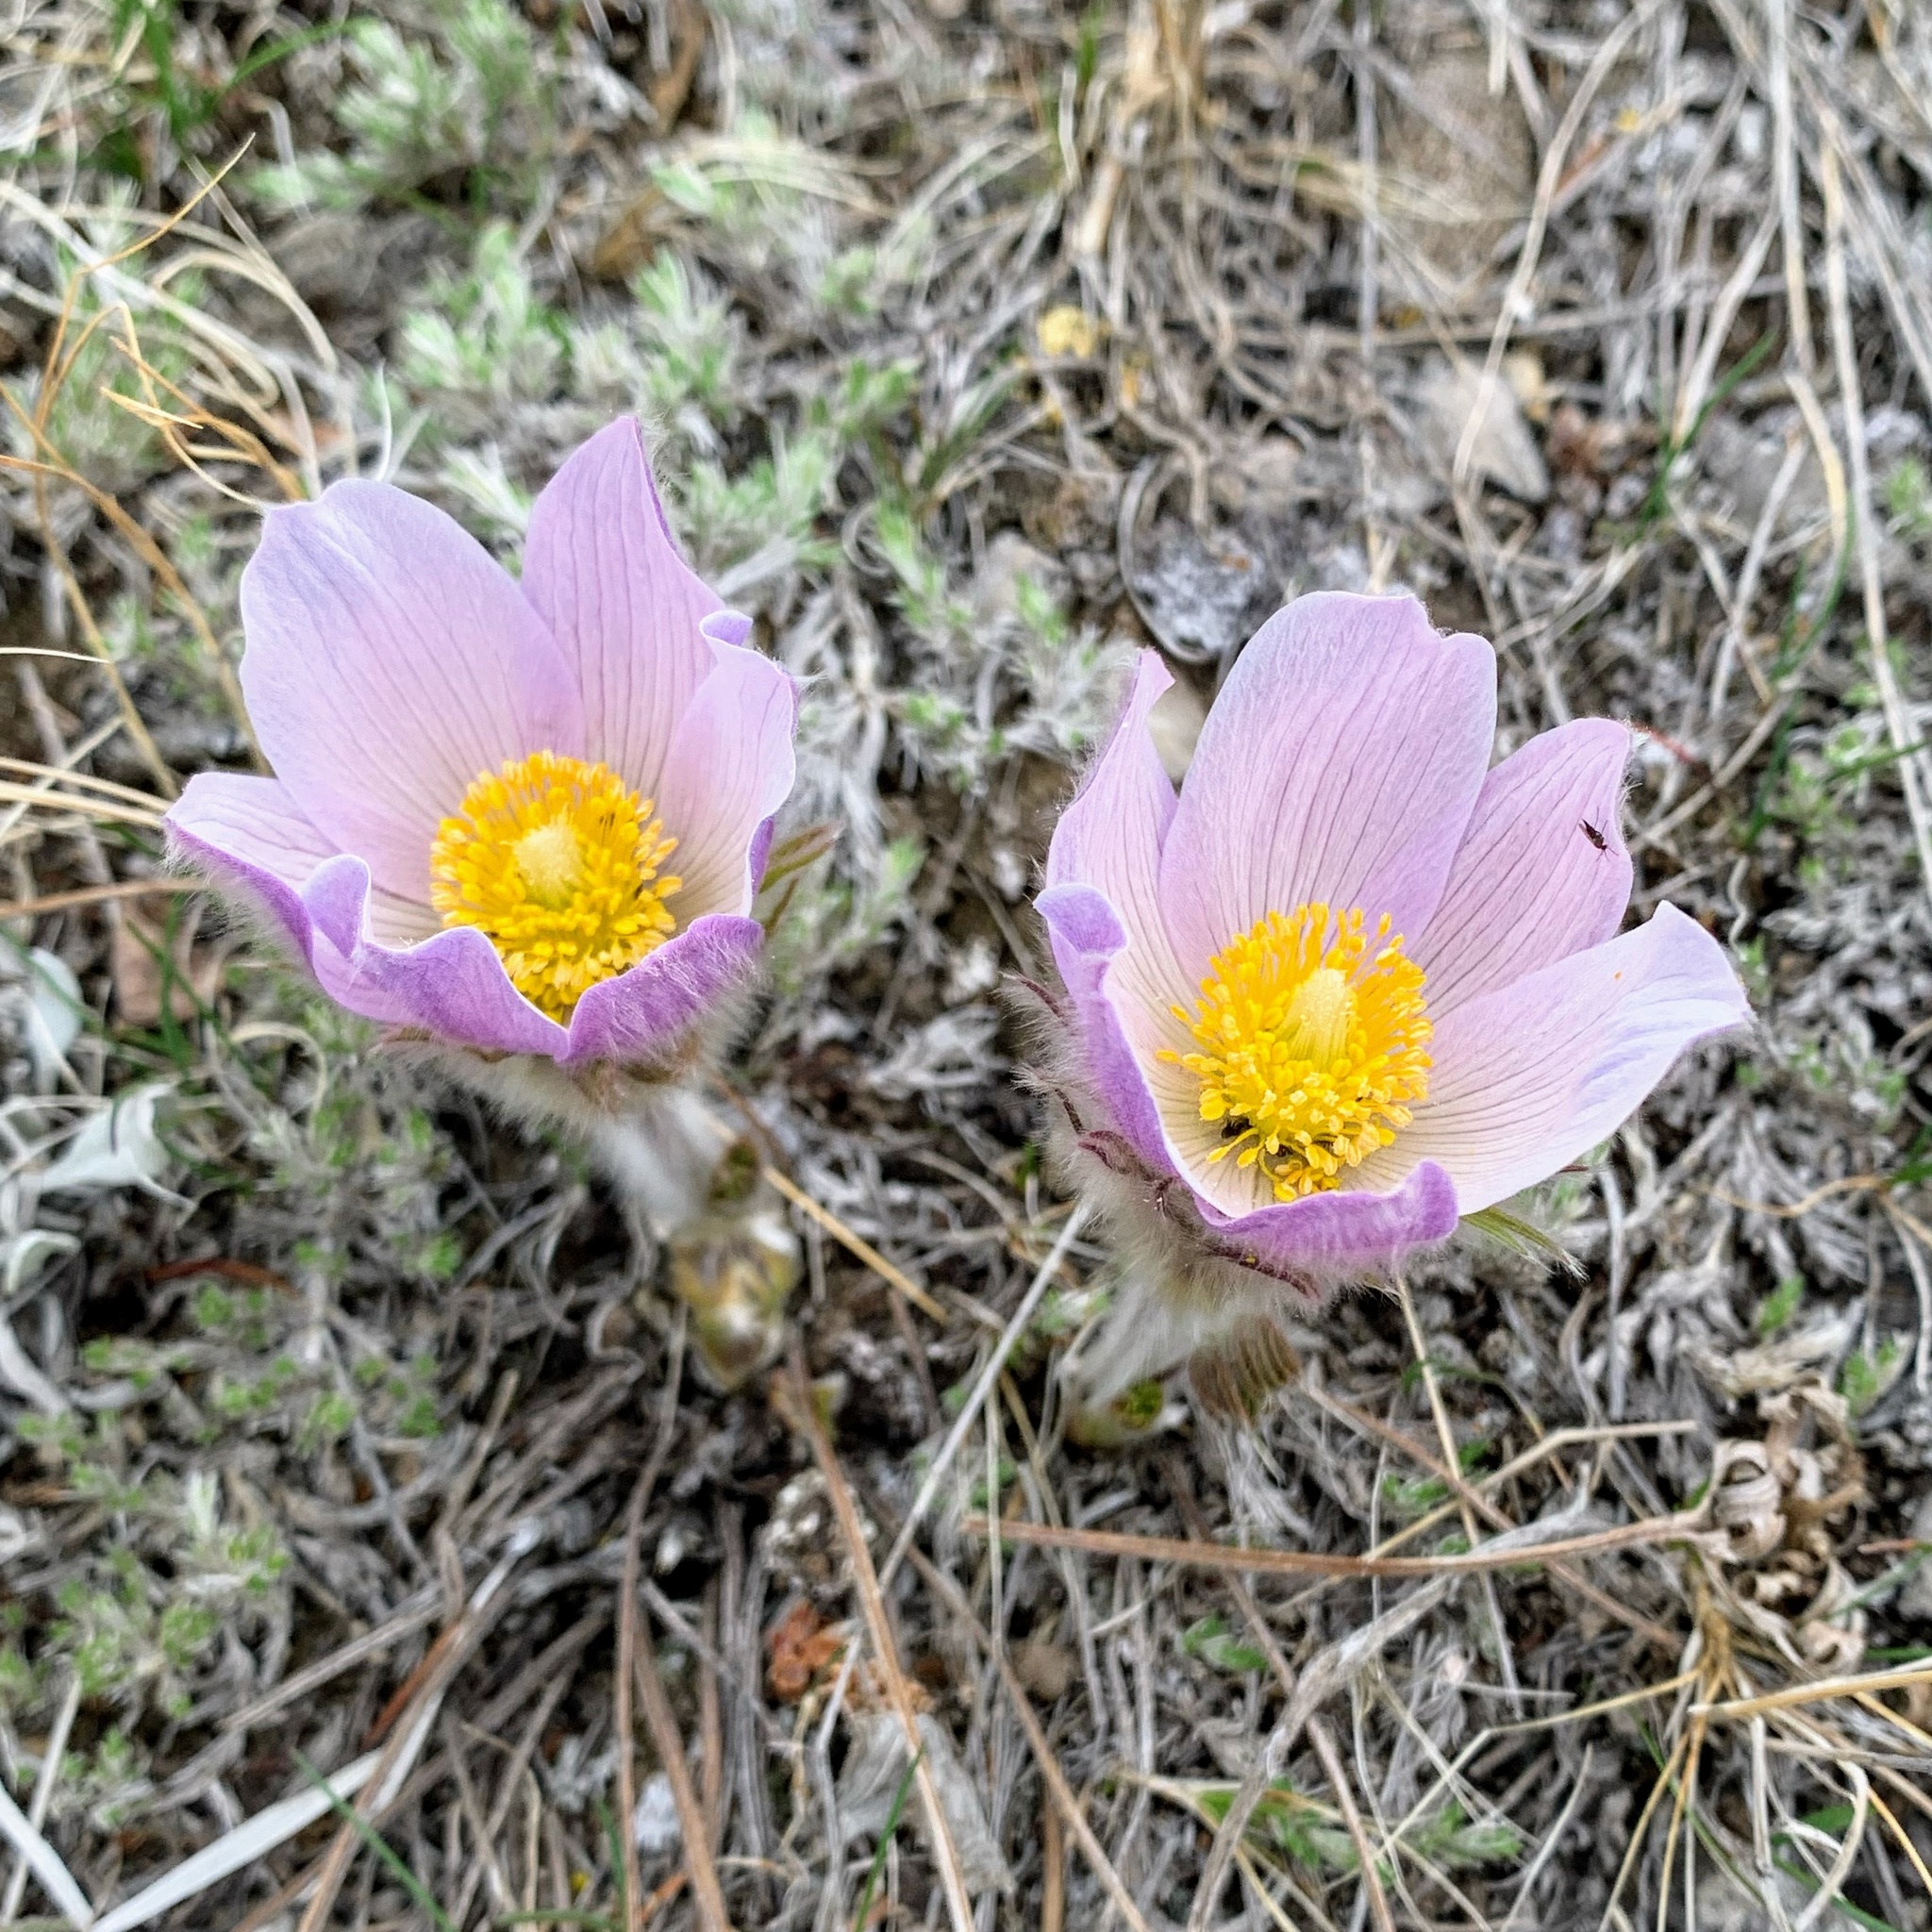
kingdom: Plantae
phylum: Tracheophyta
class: Magnoliopsida
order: Ranunculales
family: Ranunculaceae
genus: Pulsatilla
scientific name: Pulsatilla nuttalliana
